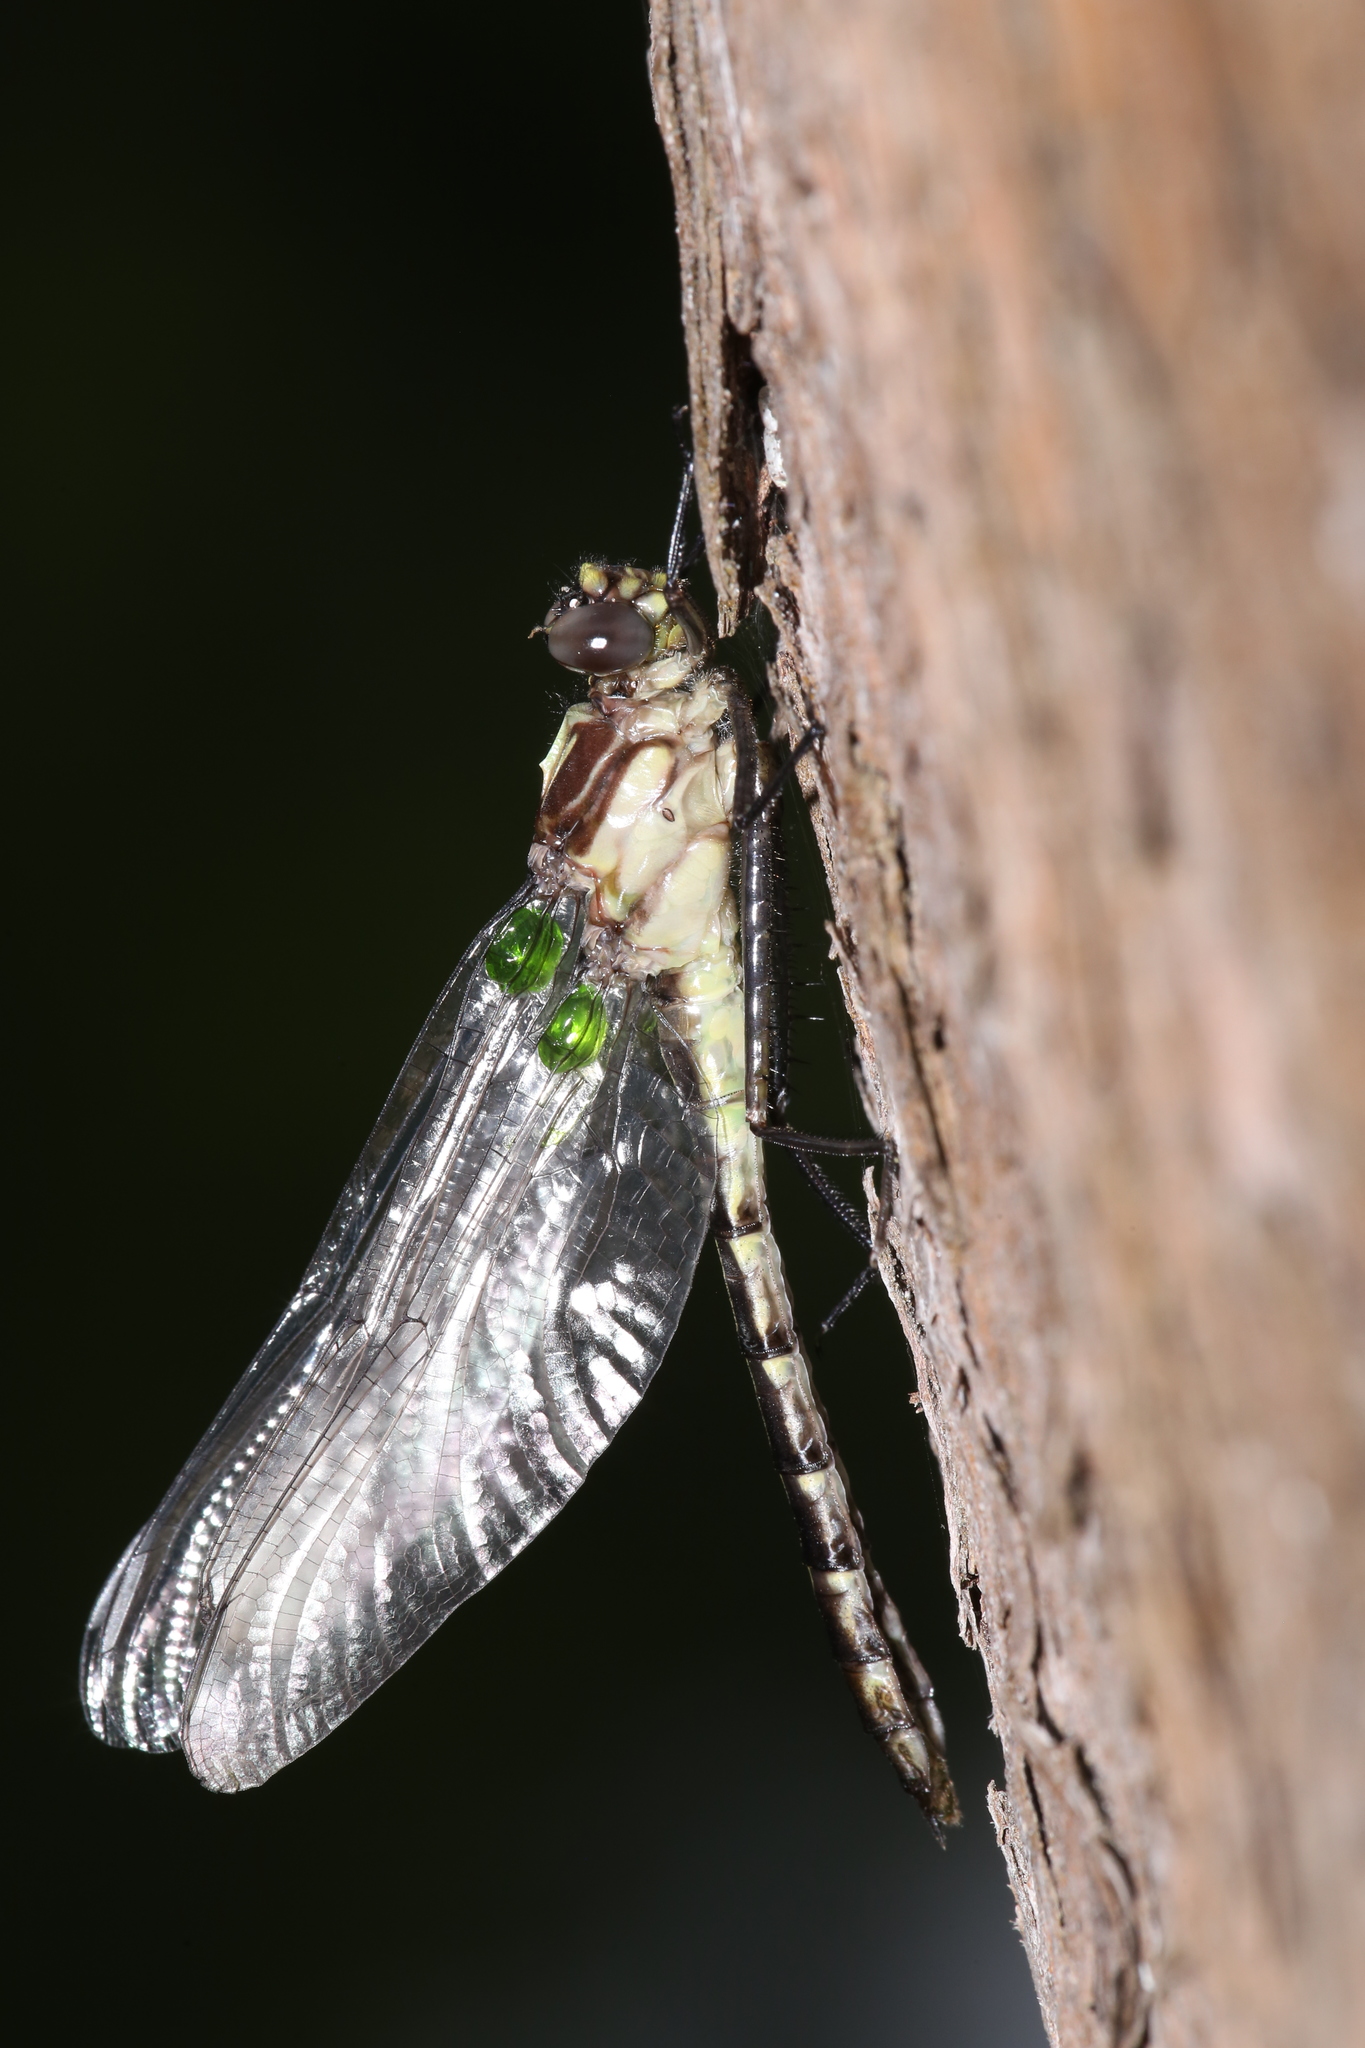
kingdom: Animalia
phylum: Arthropoda
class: Insecta
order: Odonata
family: Gomphidae
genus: Dromogomphus
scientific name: Dromogomphus spinosus
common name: Black-shouldered spinyleg
